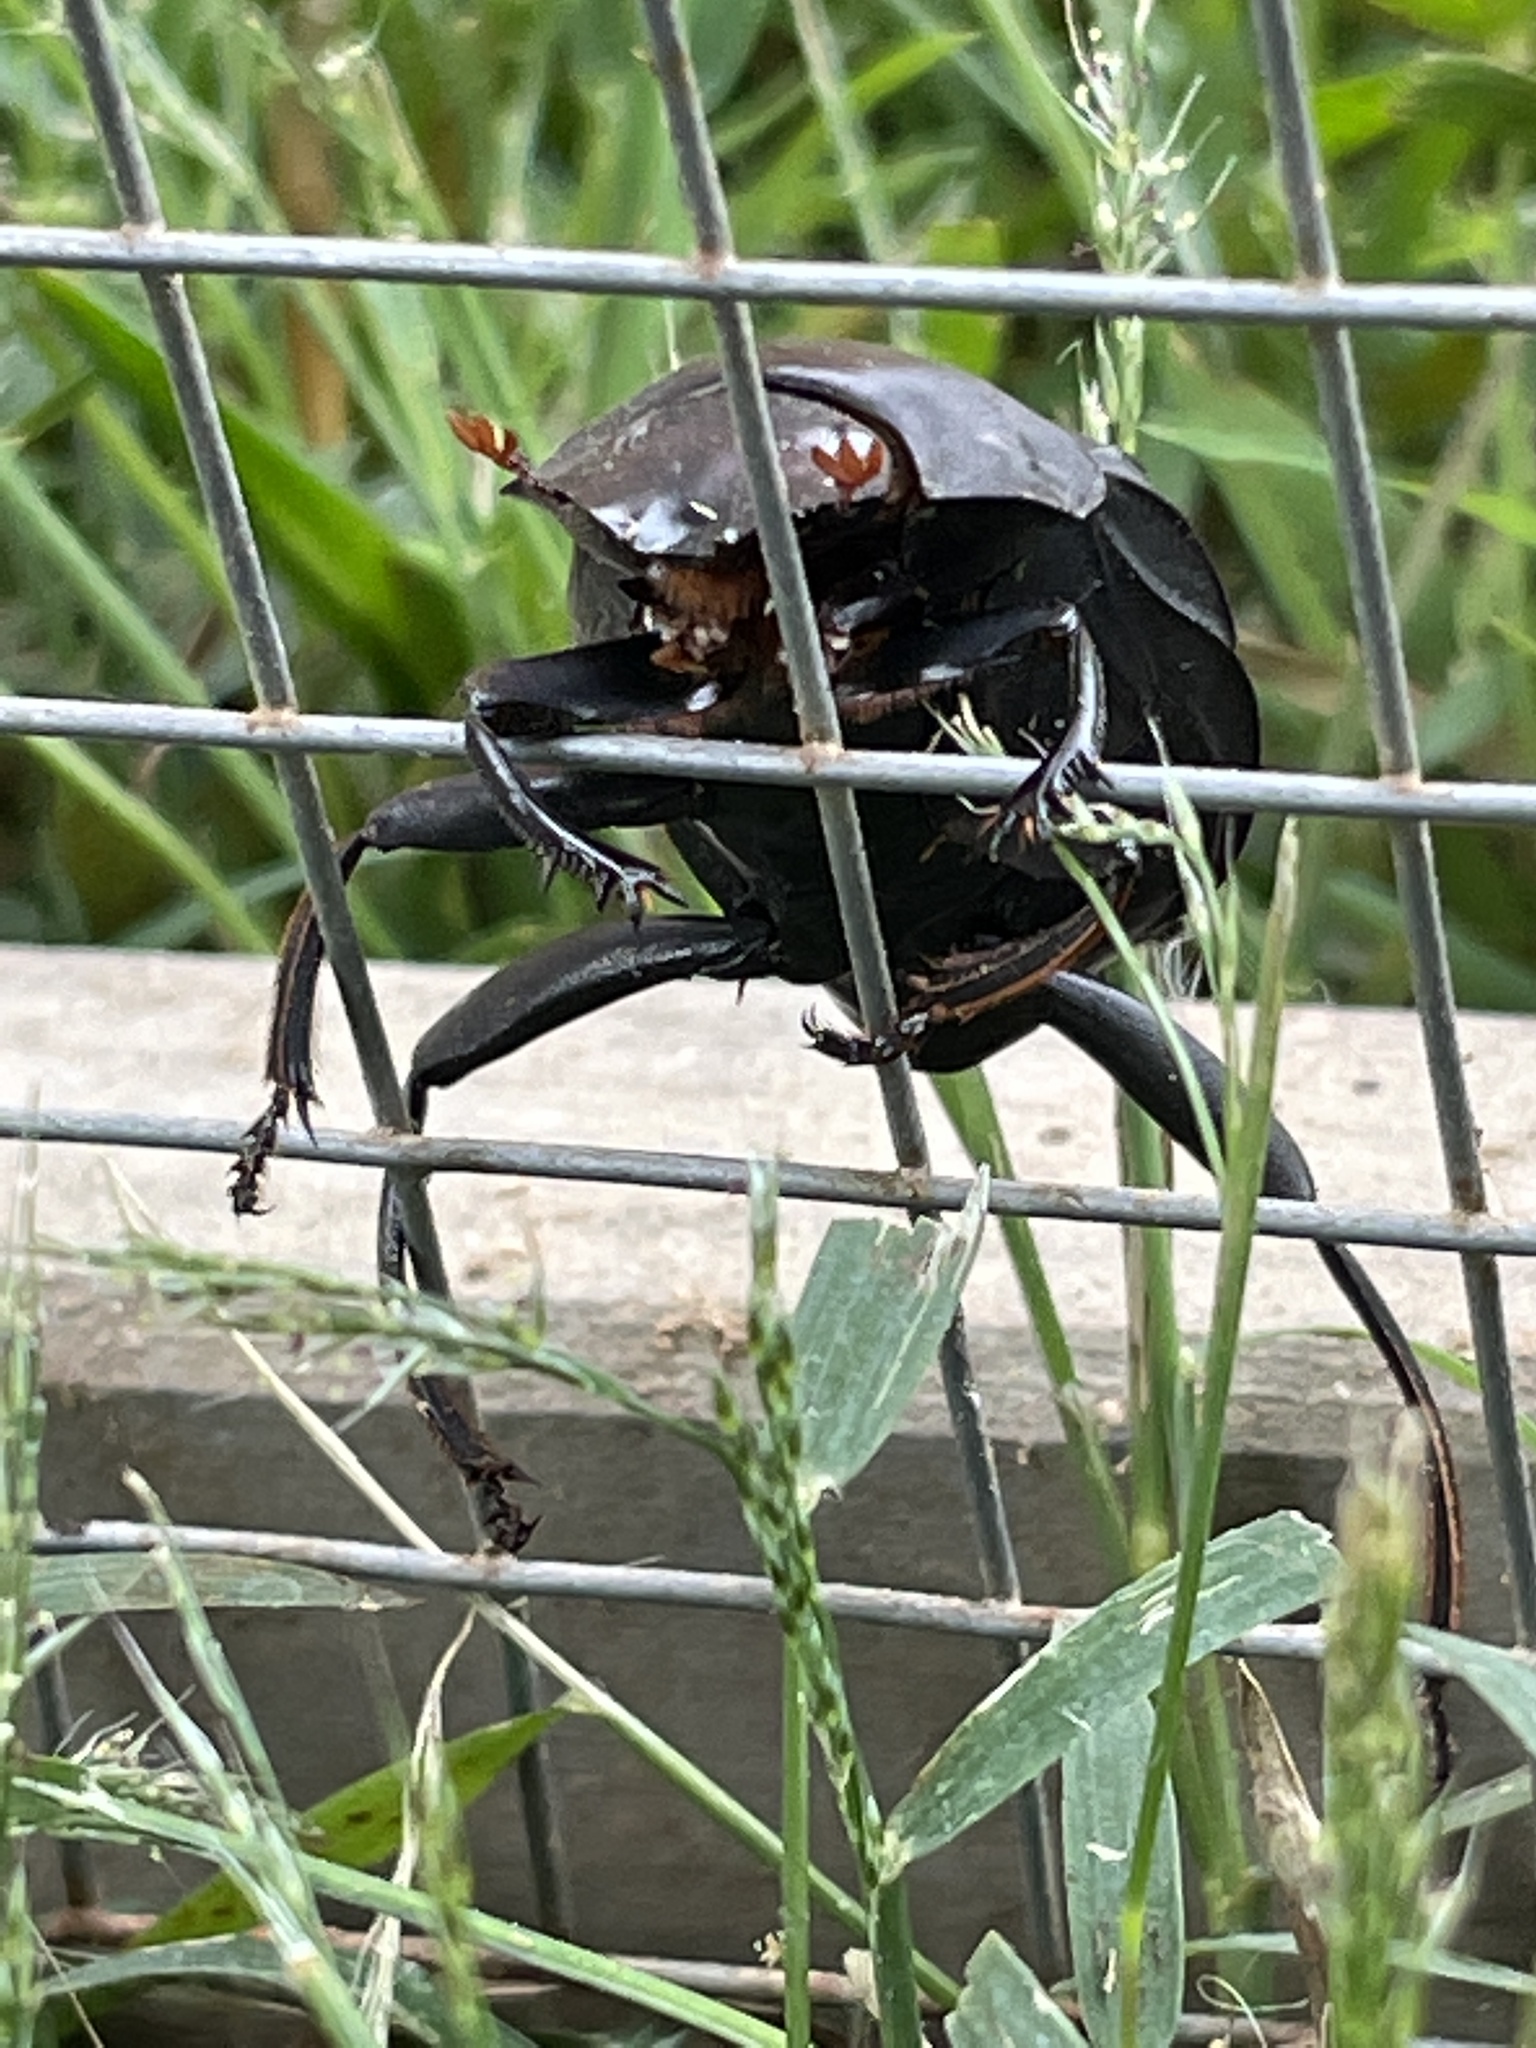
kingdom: Animalia
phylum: Arthropoda
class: Insecta
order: Coleoptera
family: Scarabaeidae
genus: Deltochilum
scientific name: Deltochilum gibbosum
